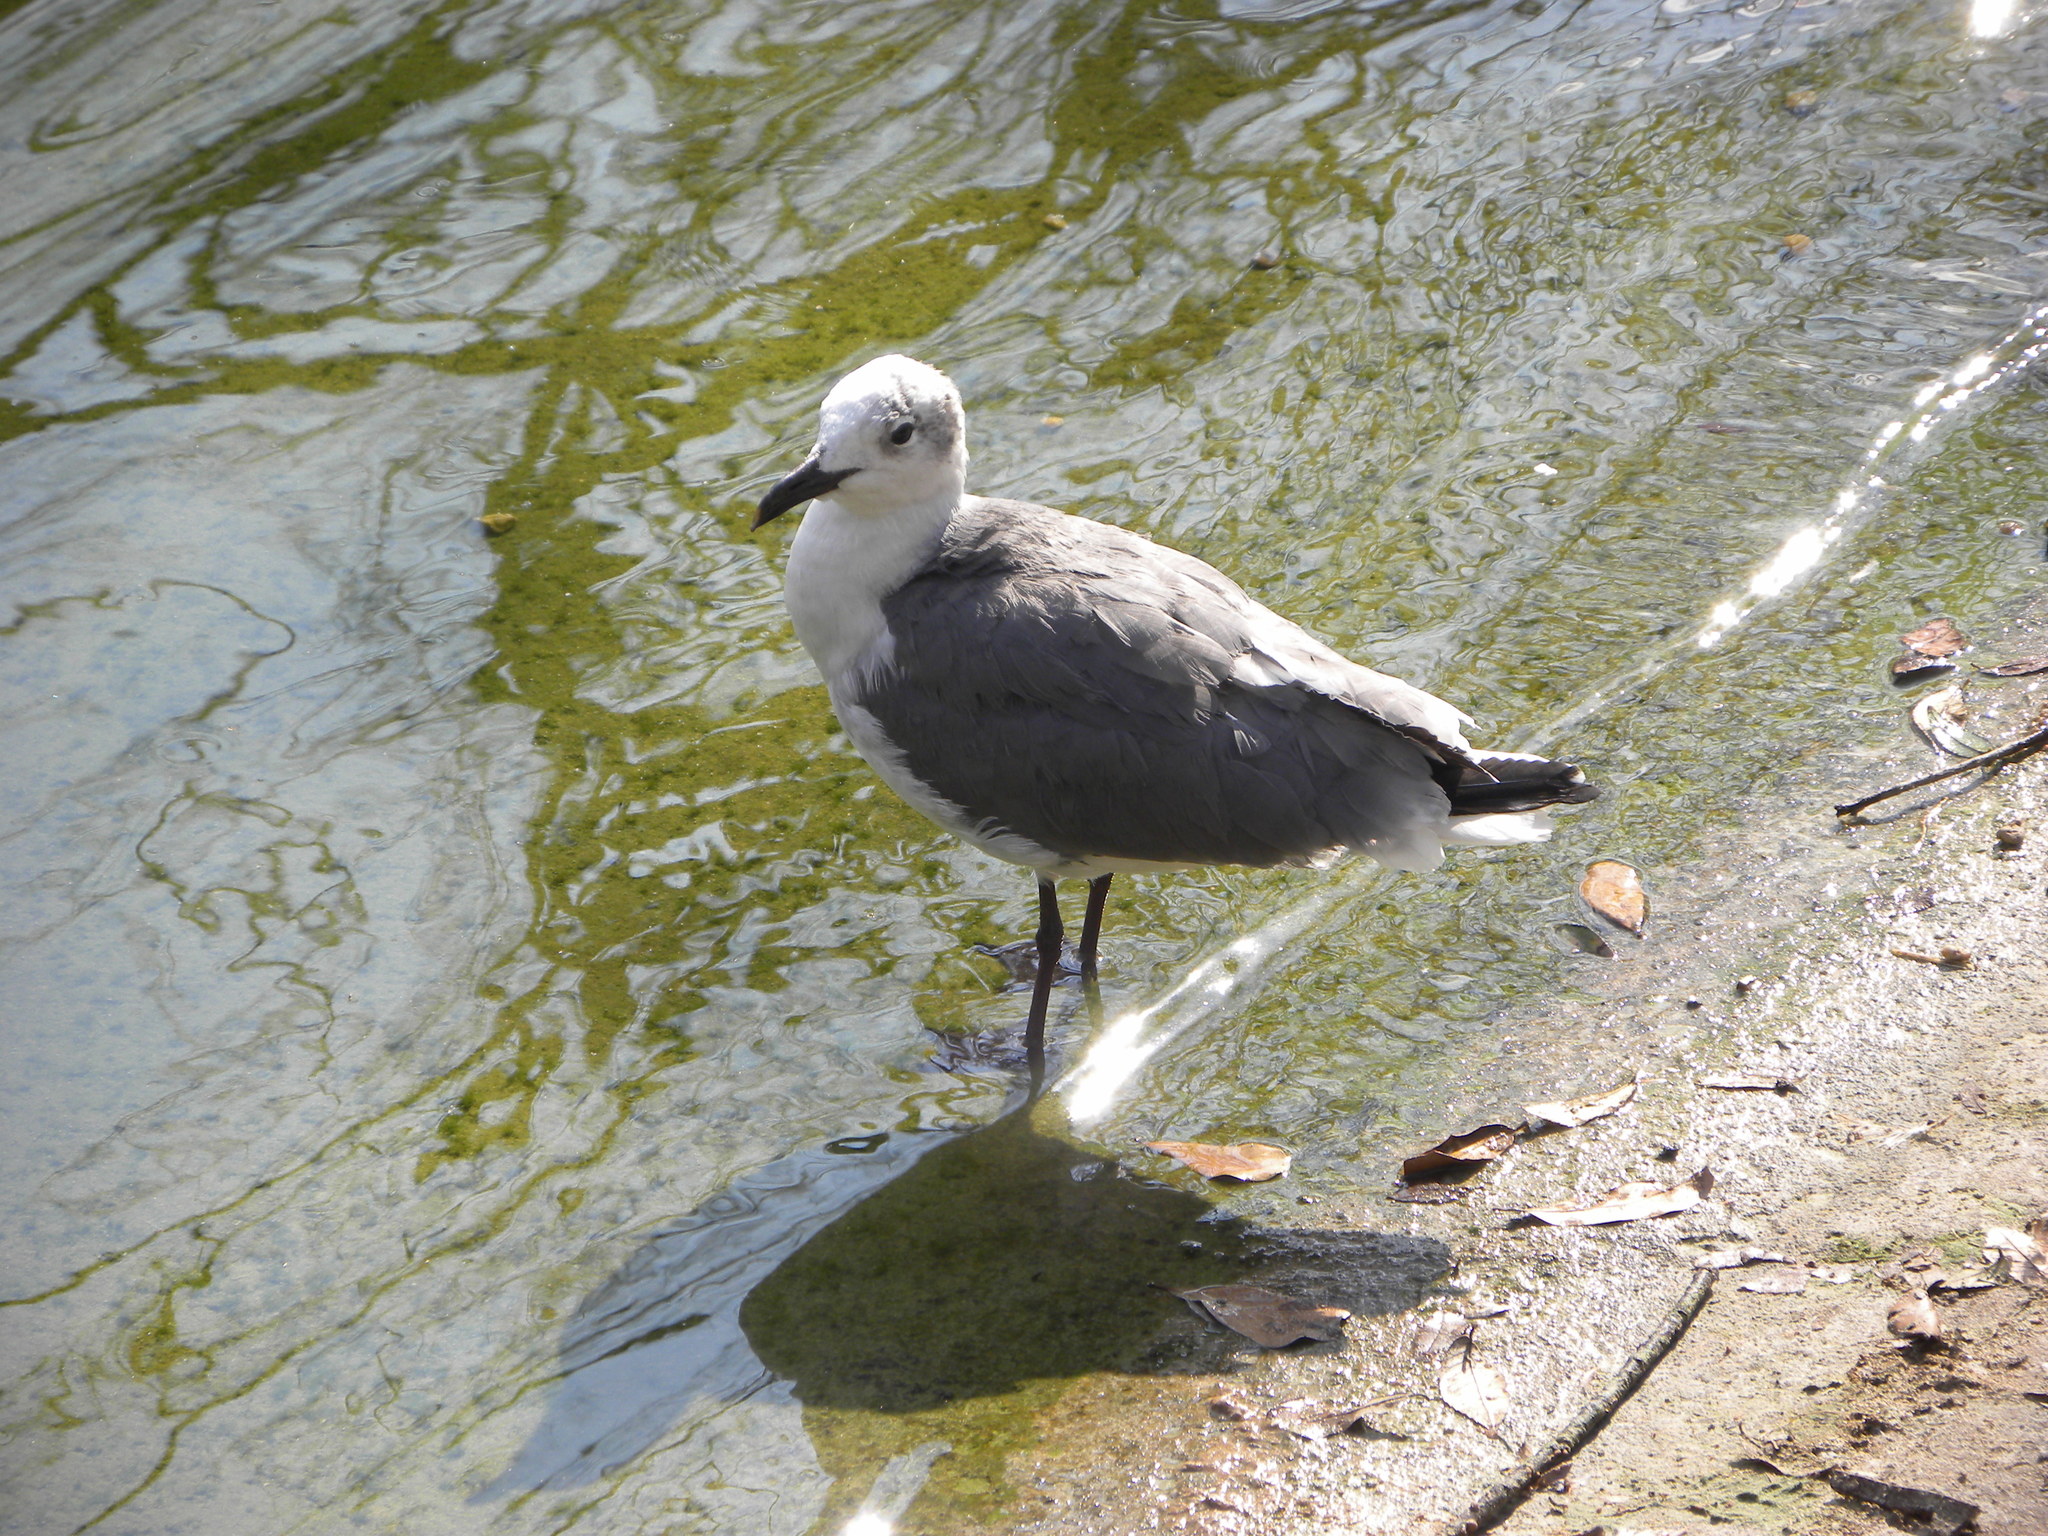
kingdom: Animalia
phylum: Chordata
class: Aves
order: Charadriiformes
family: Laridae
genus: Leucophaeus
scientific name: Leucophaeus atricilla
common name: Laughing gull
